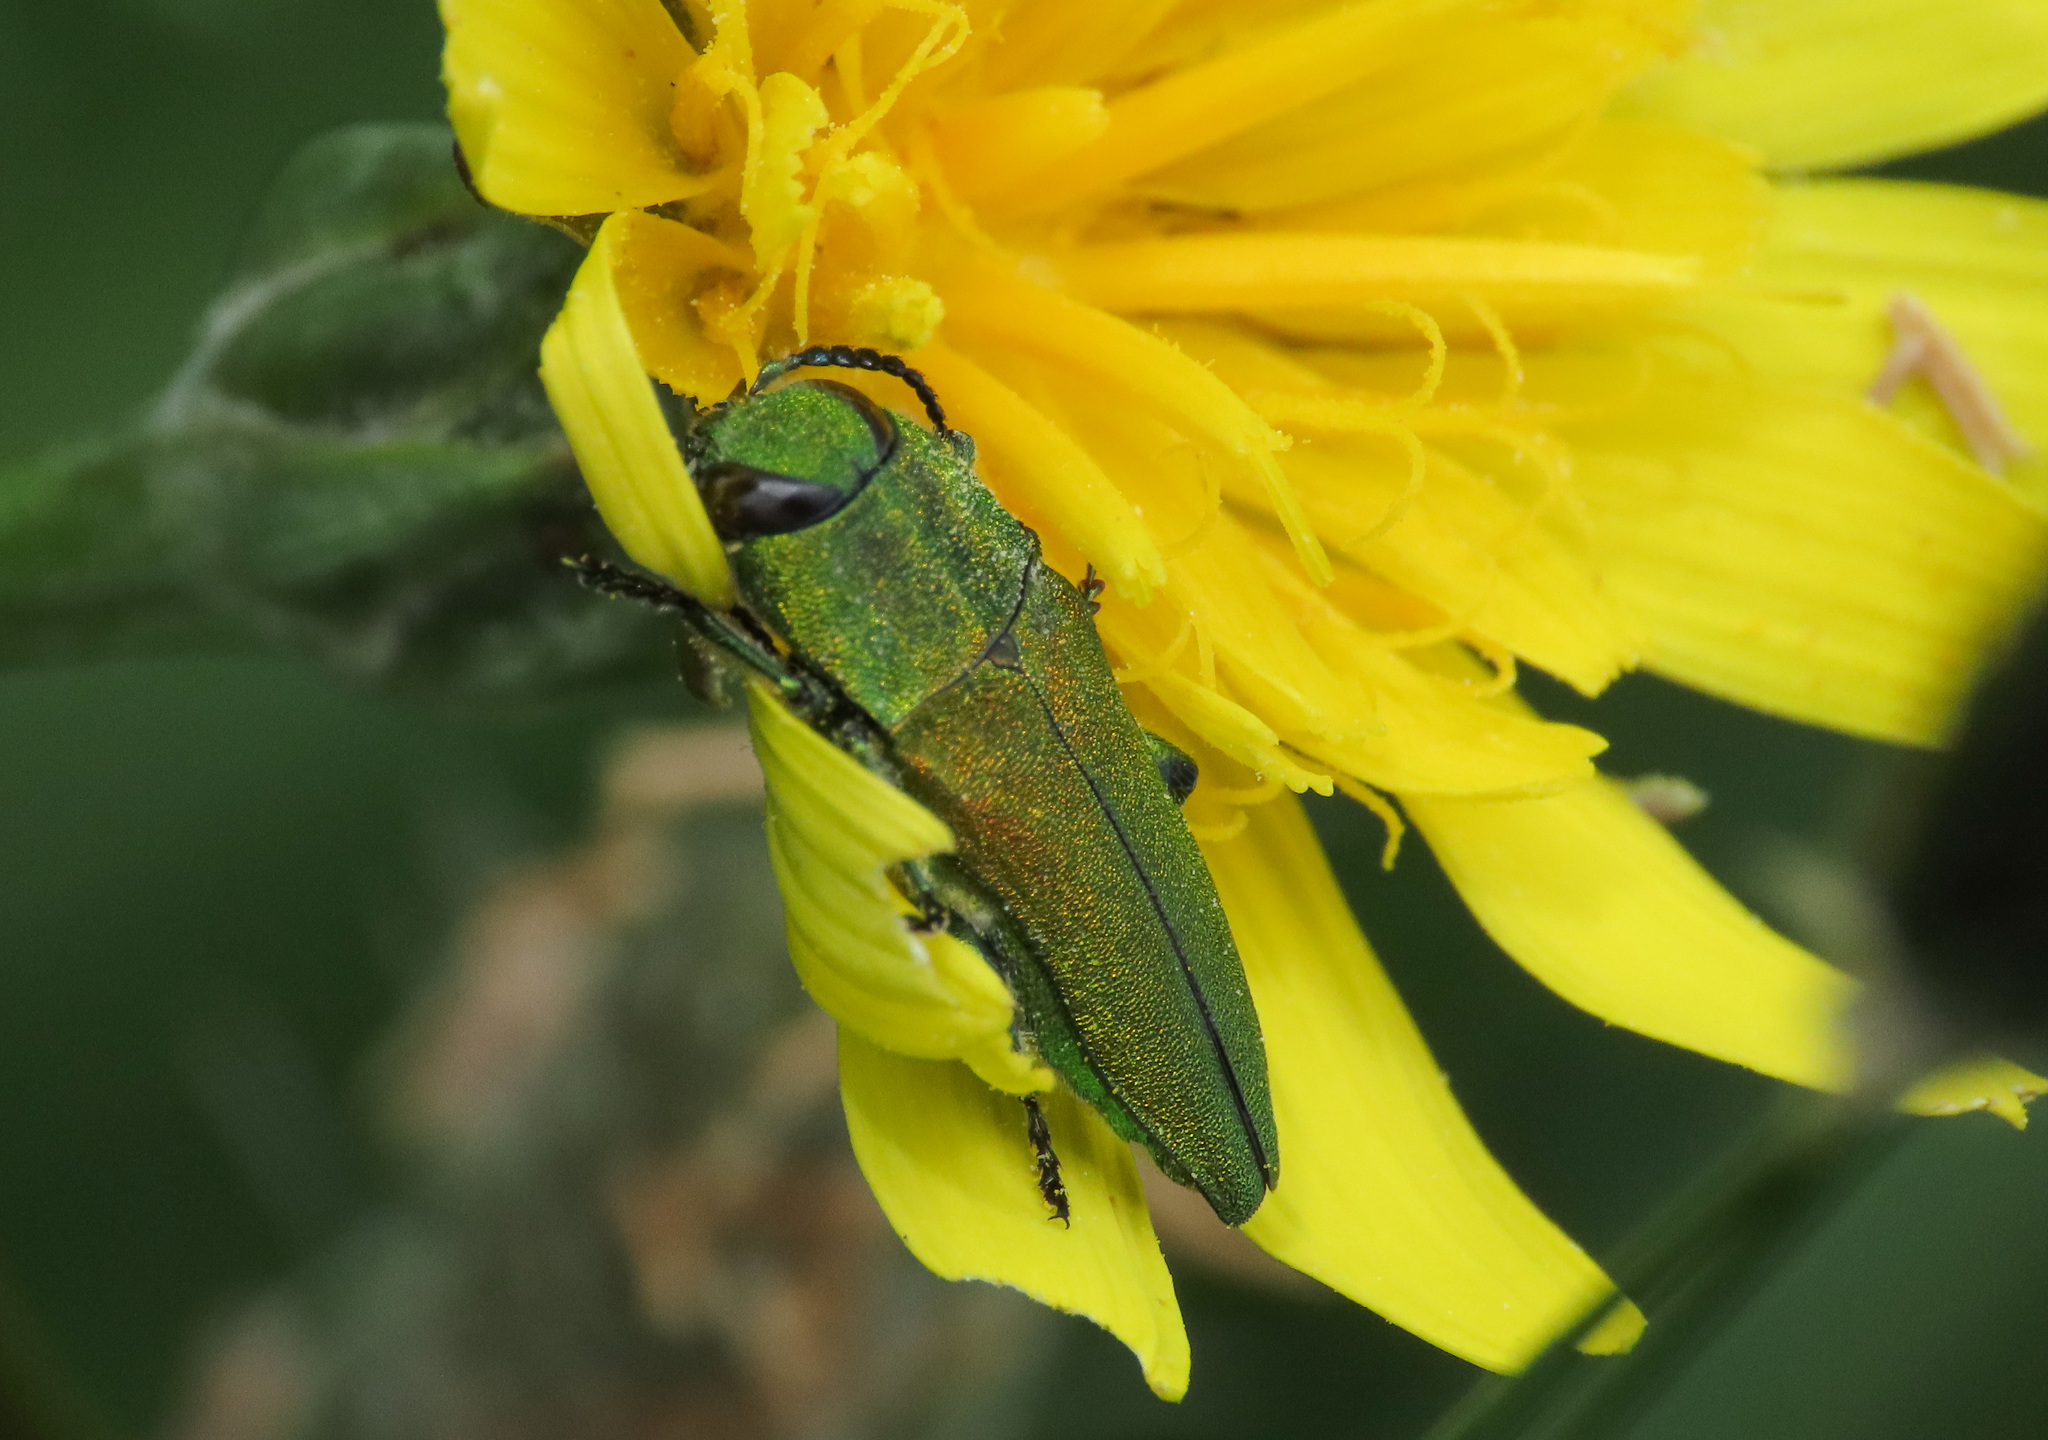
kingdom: Animalia
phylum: Arthropoda
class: Insecta
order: Coleoptera
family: Buprestidae
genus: Anthaxia
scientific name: Anthaxia hungarica
